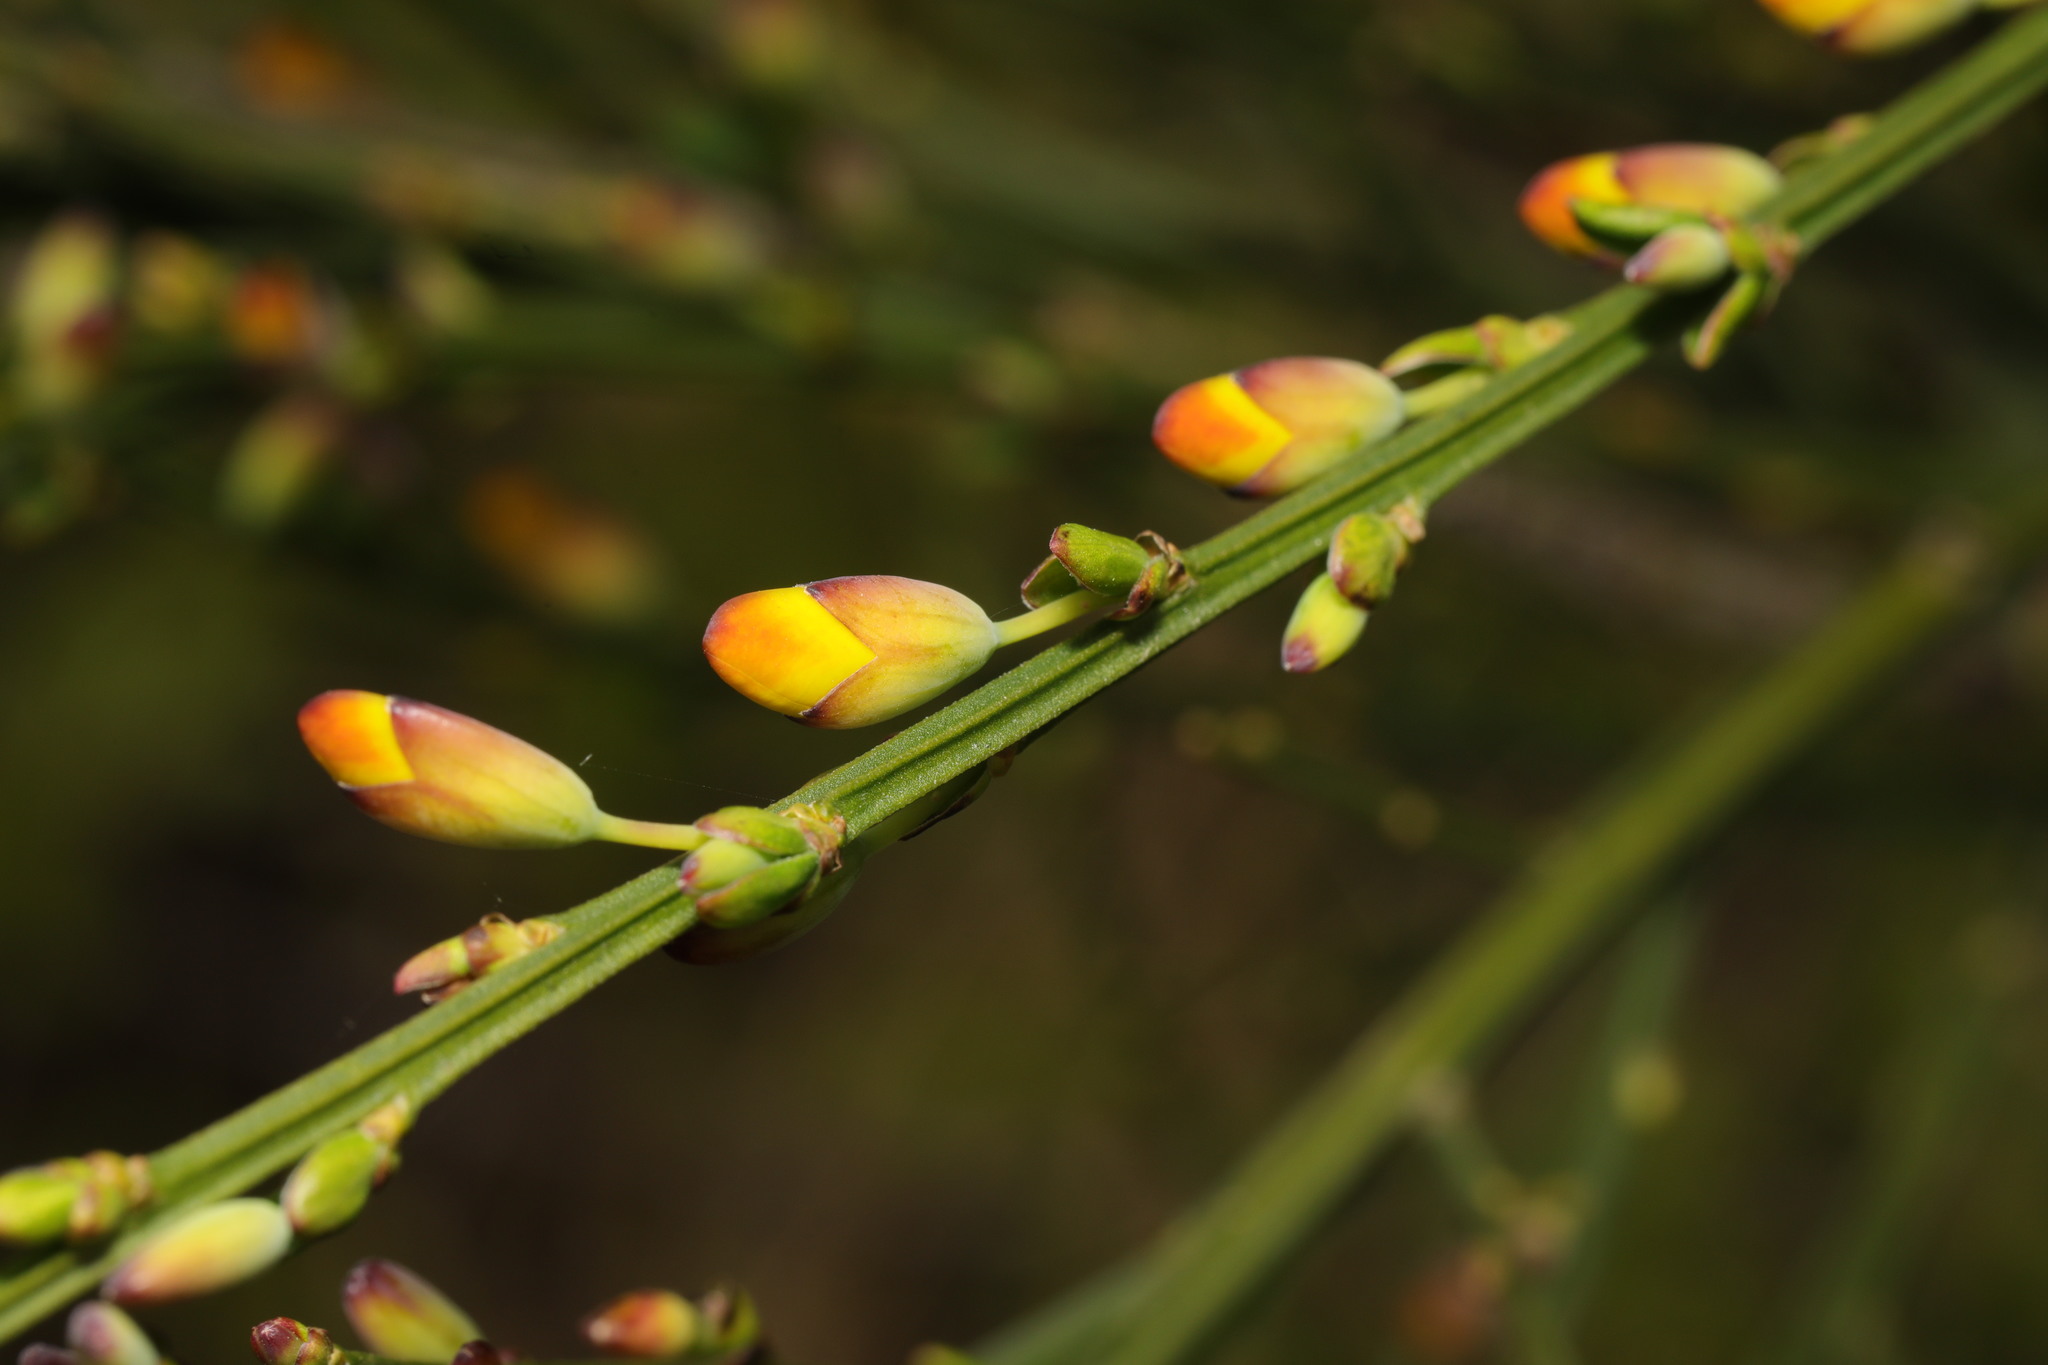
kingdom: Plantae
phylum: Tracheophyta
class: Magnoliopsida
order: Fabales
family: Fabaceae
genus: Cytisus
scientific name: Cytisus scoparius
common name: Scotch broom
